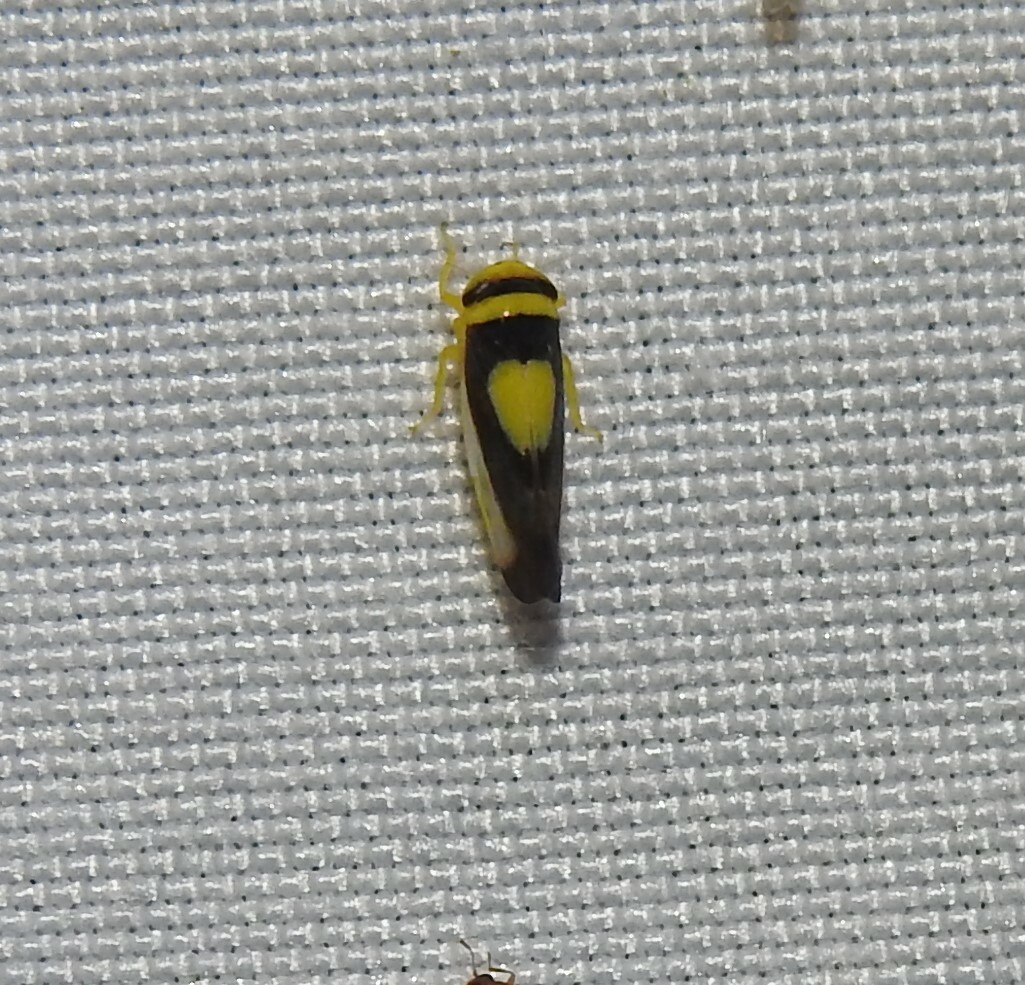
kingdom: Animalia
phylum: Arthropoda
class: Insecta
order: Hemiptera
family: Cicadellidae
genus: Colladonus
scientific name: Colladonus clitellarius
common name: The saddleback leafhopper
